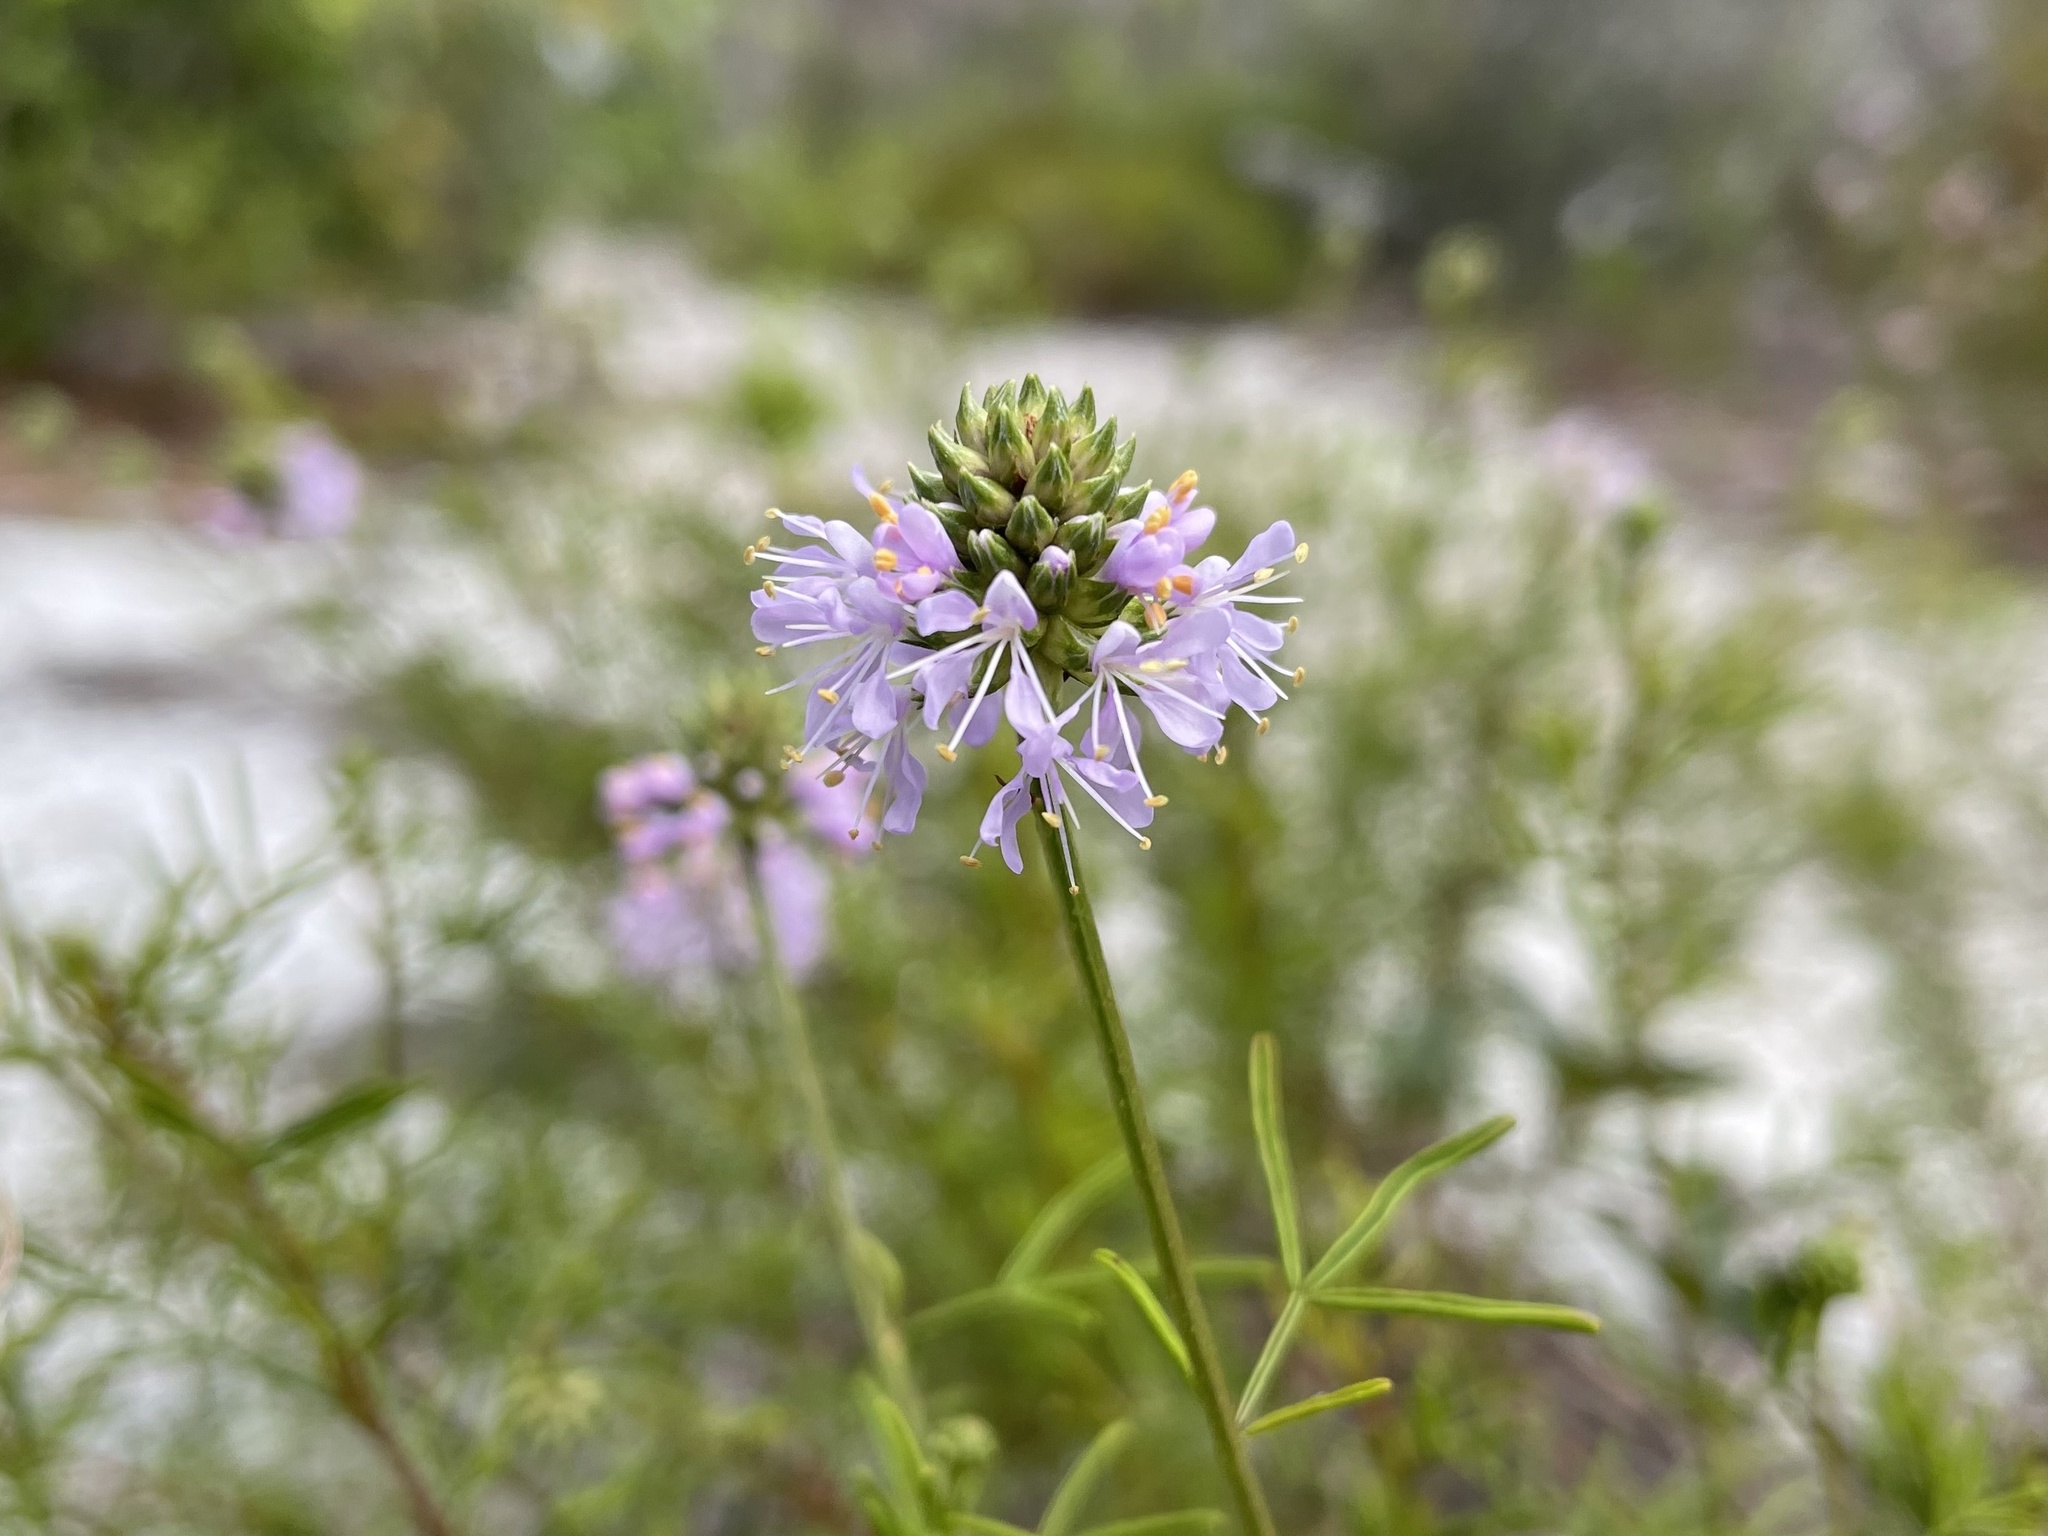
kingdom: Plantae
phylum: Tracheophyta
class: Magnoliopsida
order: Fabales
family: Fabaceae
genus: Dalea
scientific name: Dalea feayi
